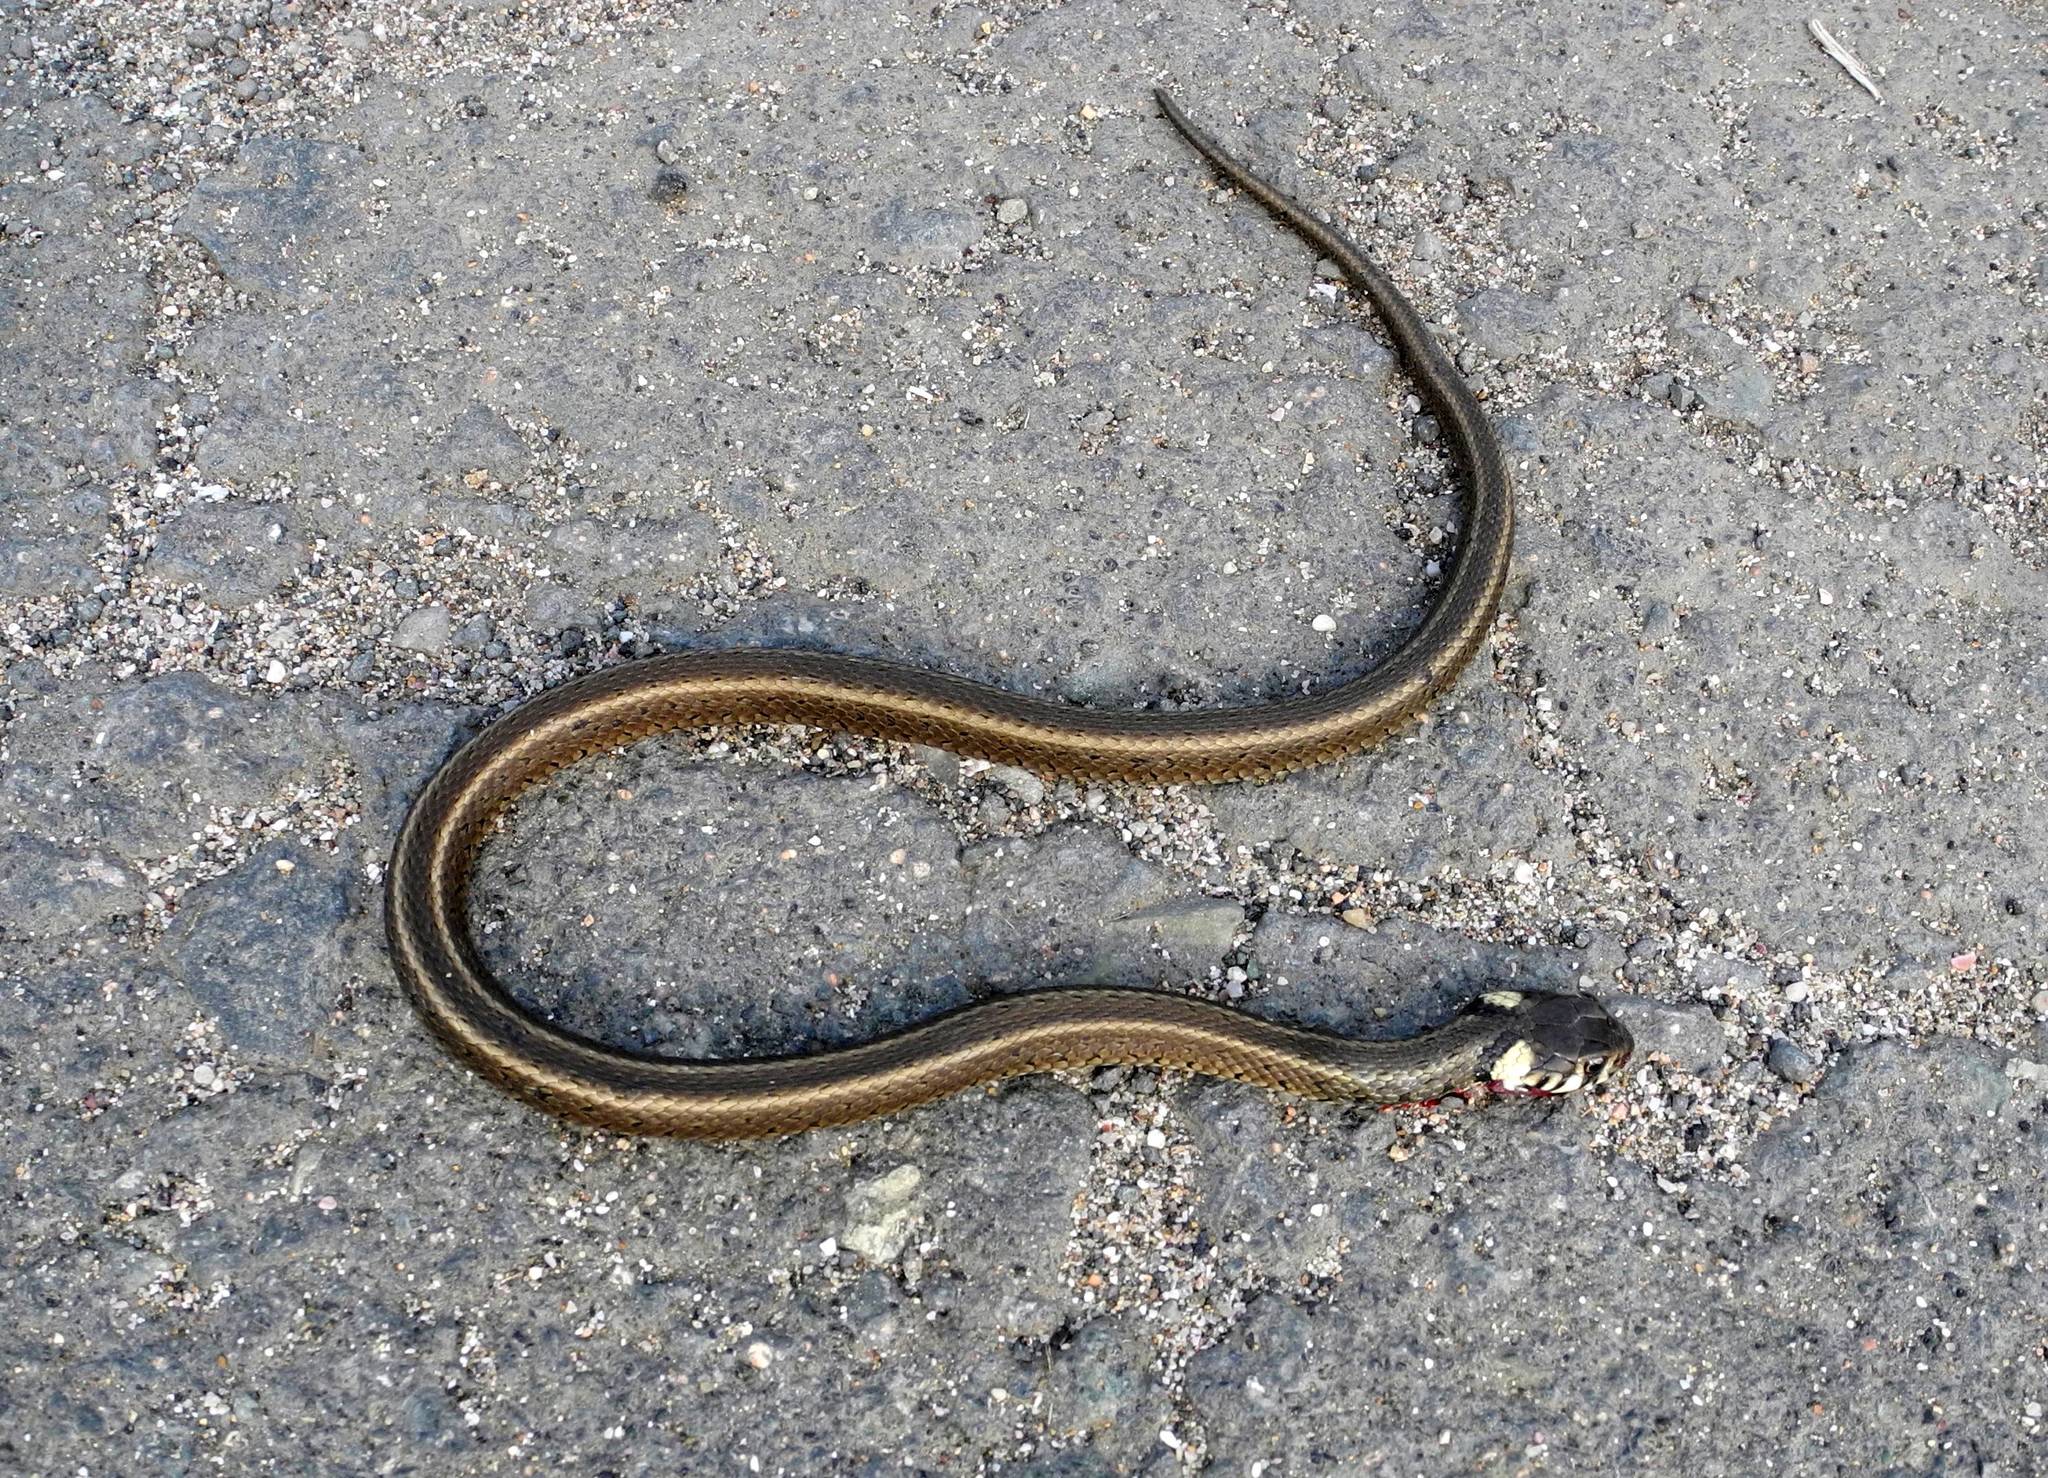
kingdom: Animalia
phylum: Chordata
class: Squamata
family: Colubridae
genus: Natrix
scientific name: Natrix natrix
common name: Grass snake
